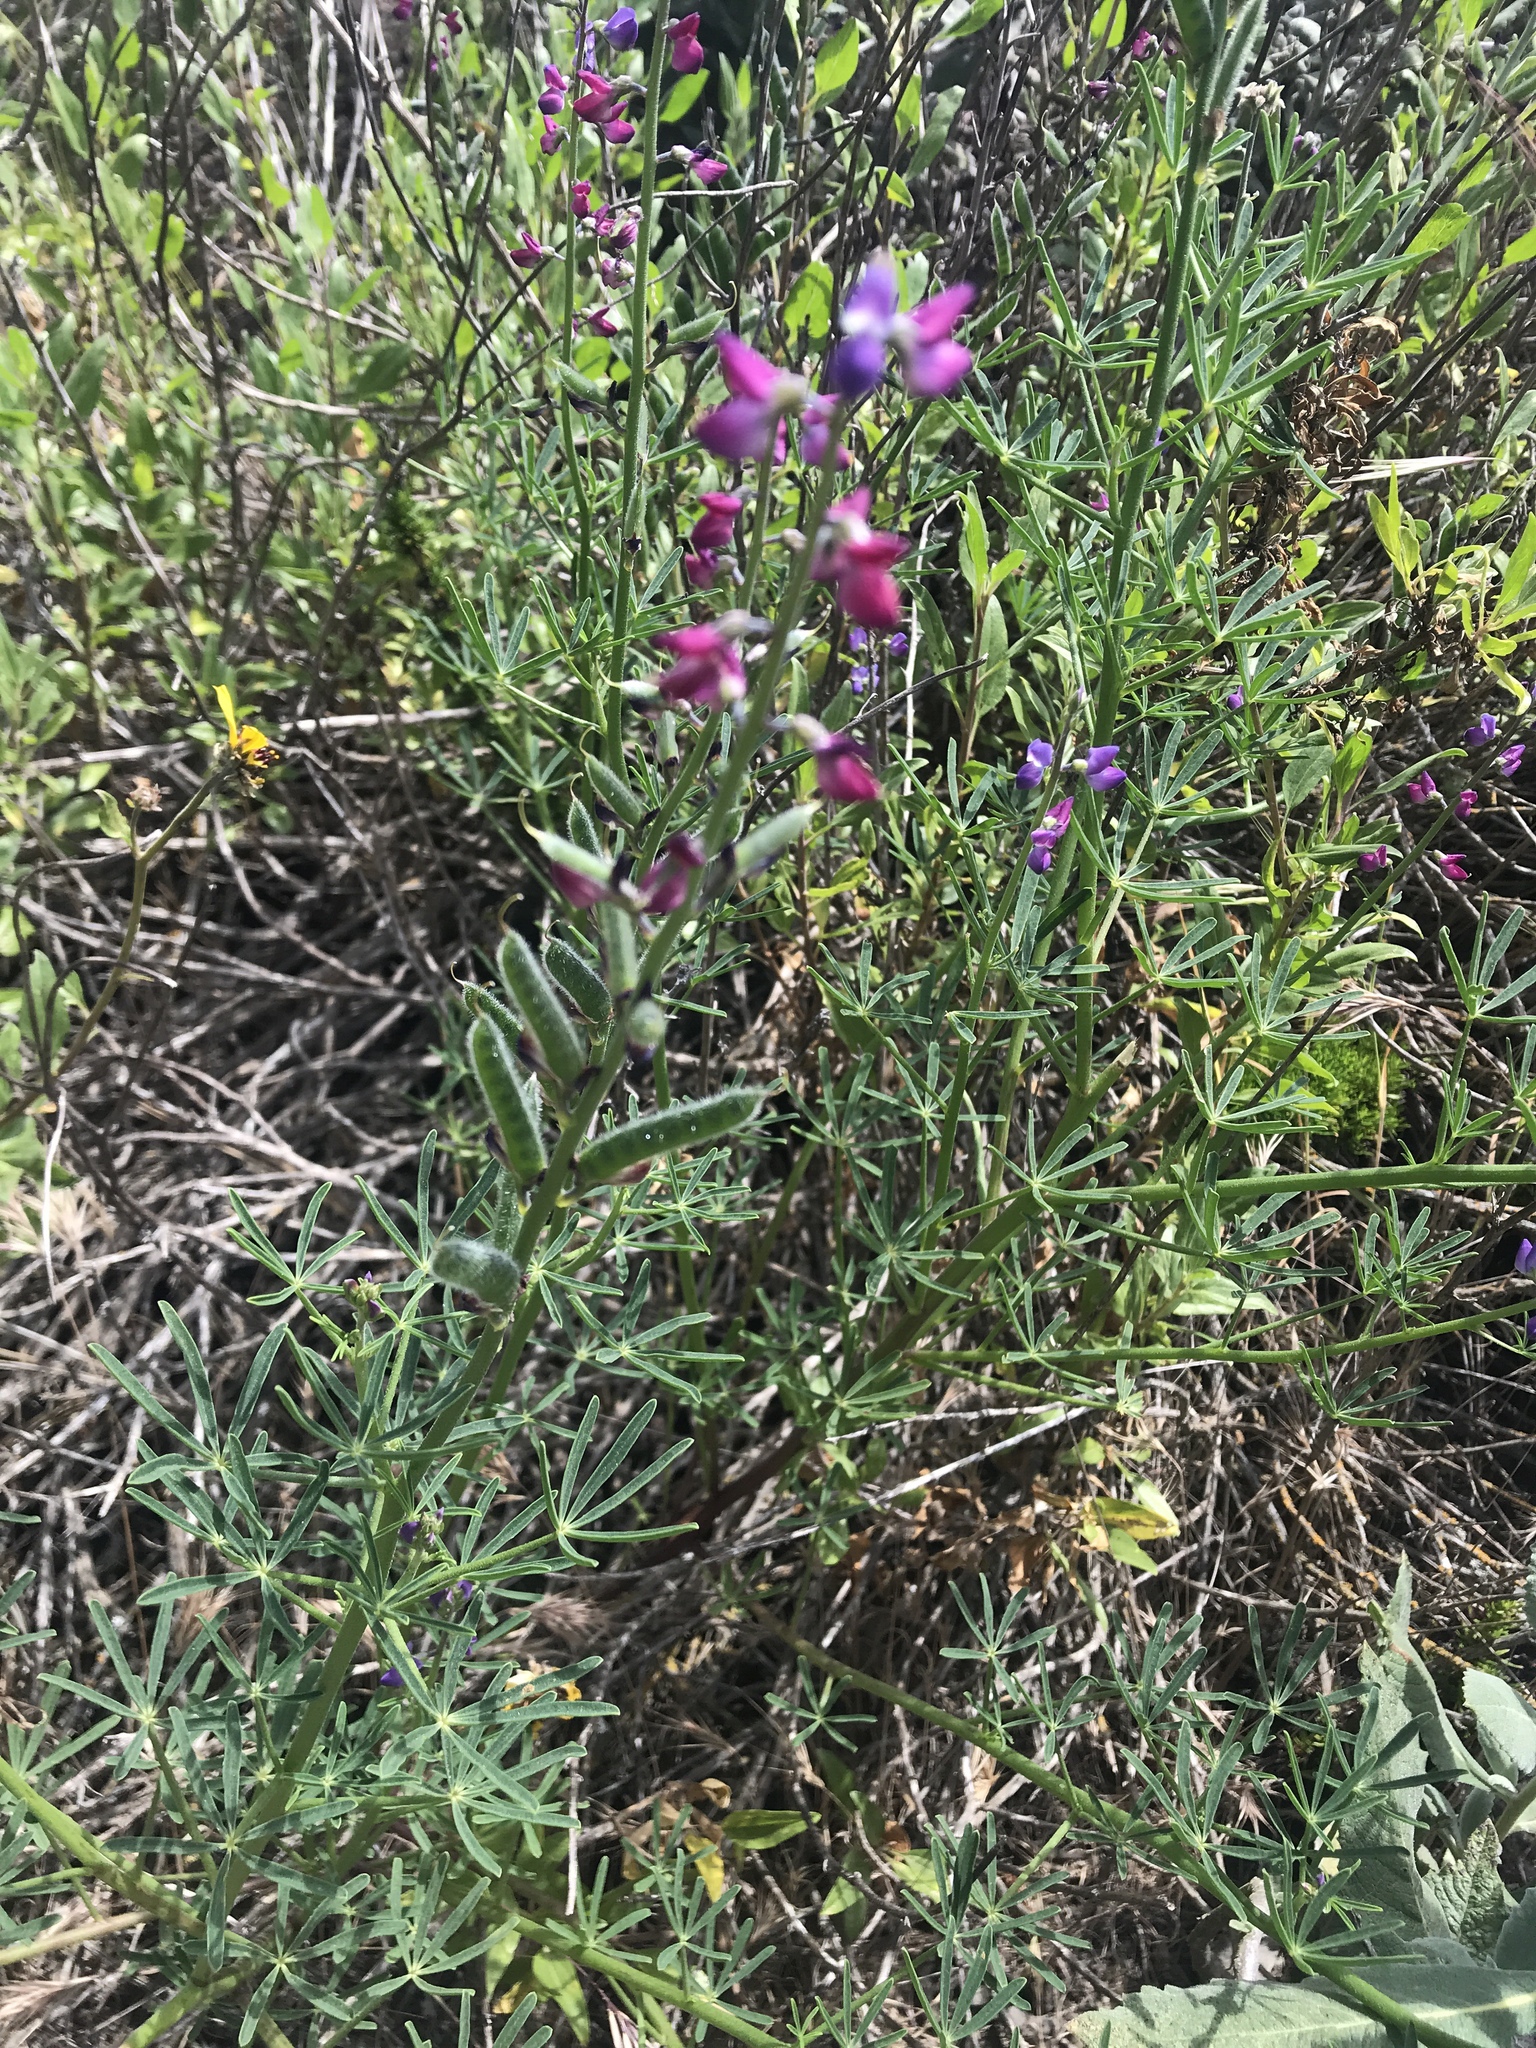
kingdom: Plantae
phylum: Tracheophyta
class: Magnoliopsida
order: Fabales
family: Fabaceae
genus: Lupinus
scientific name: Lupinus truncatus
